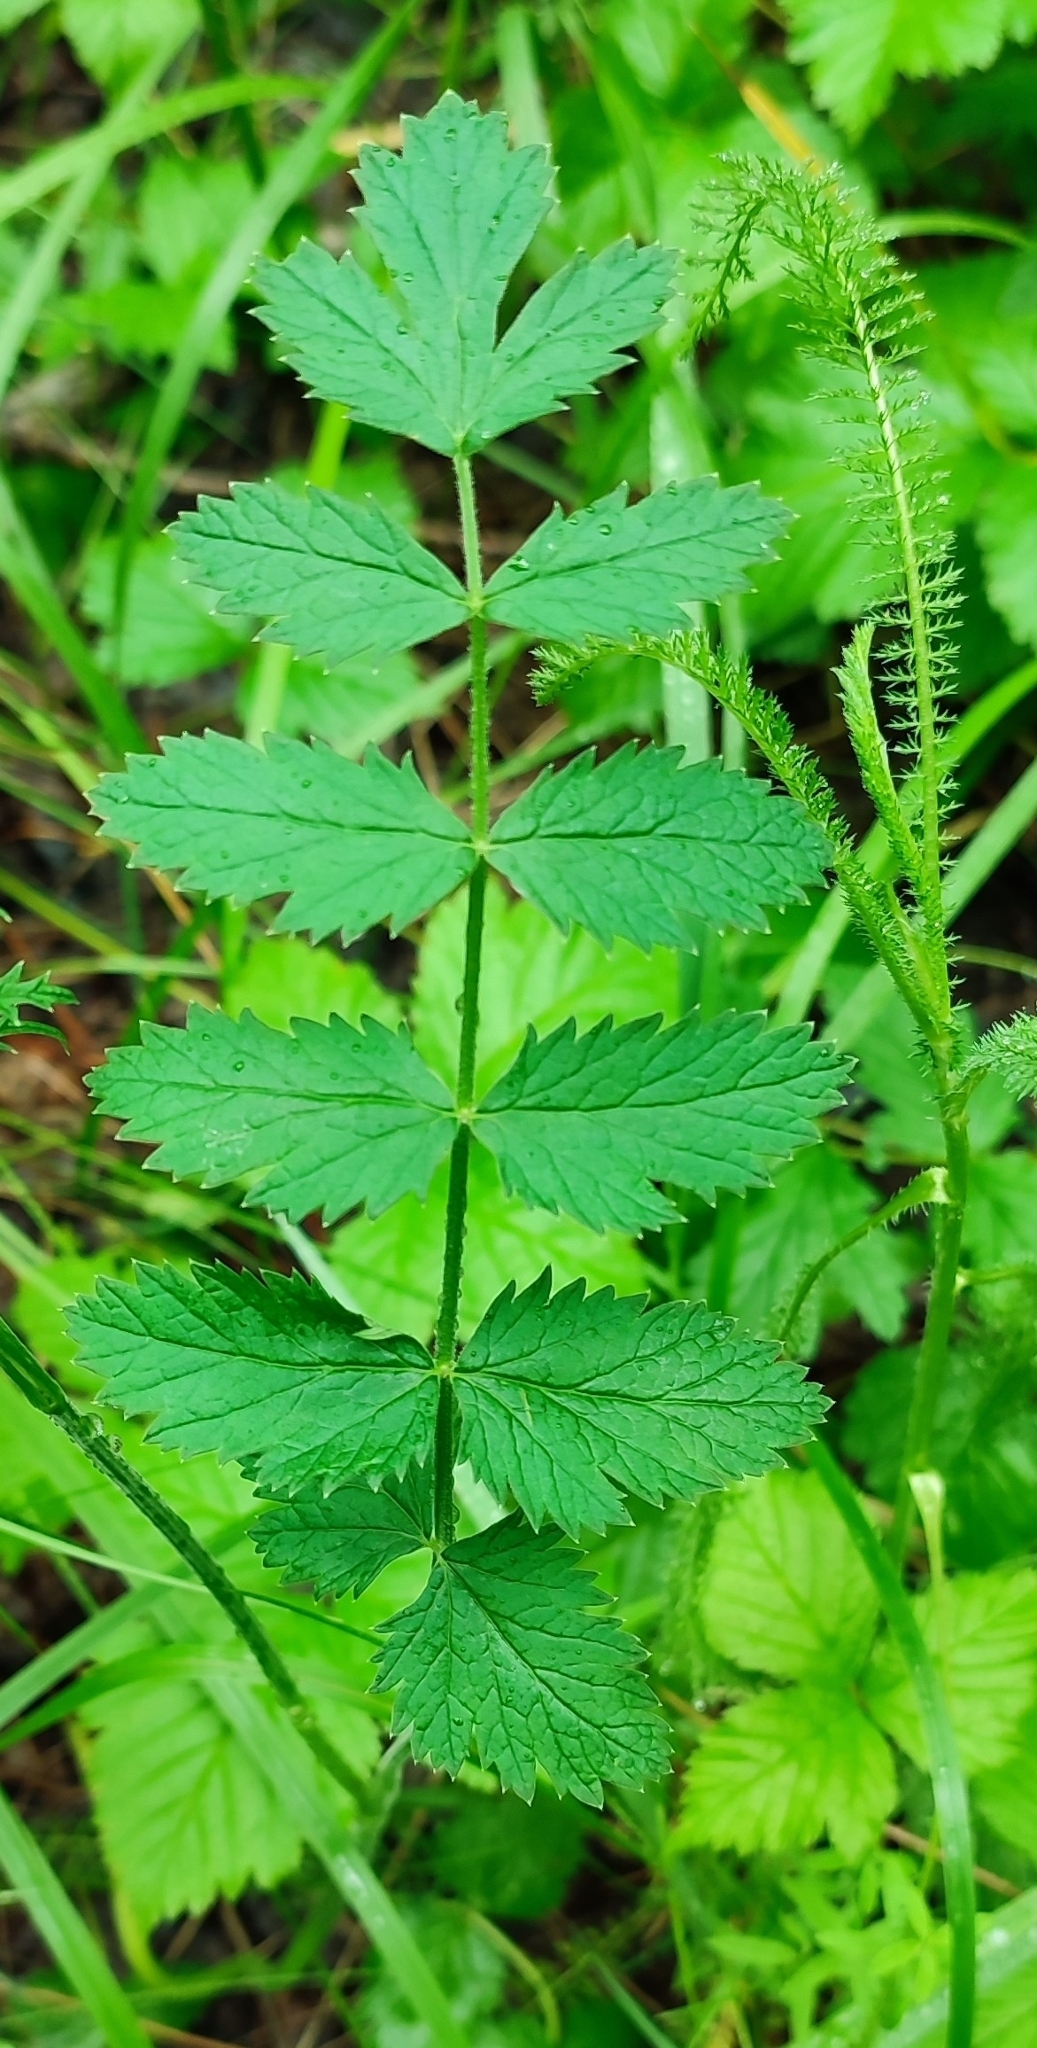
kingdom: Plantae
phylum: Tracheophyta
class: Magnoliopsida
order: Apiales
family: Apiaceae
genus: Pimpinella
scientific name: Pimpinella saxifraga
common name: Burnet-saxifrage
